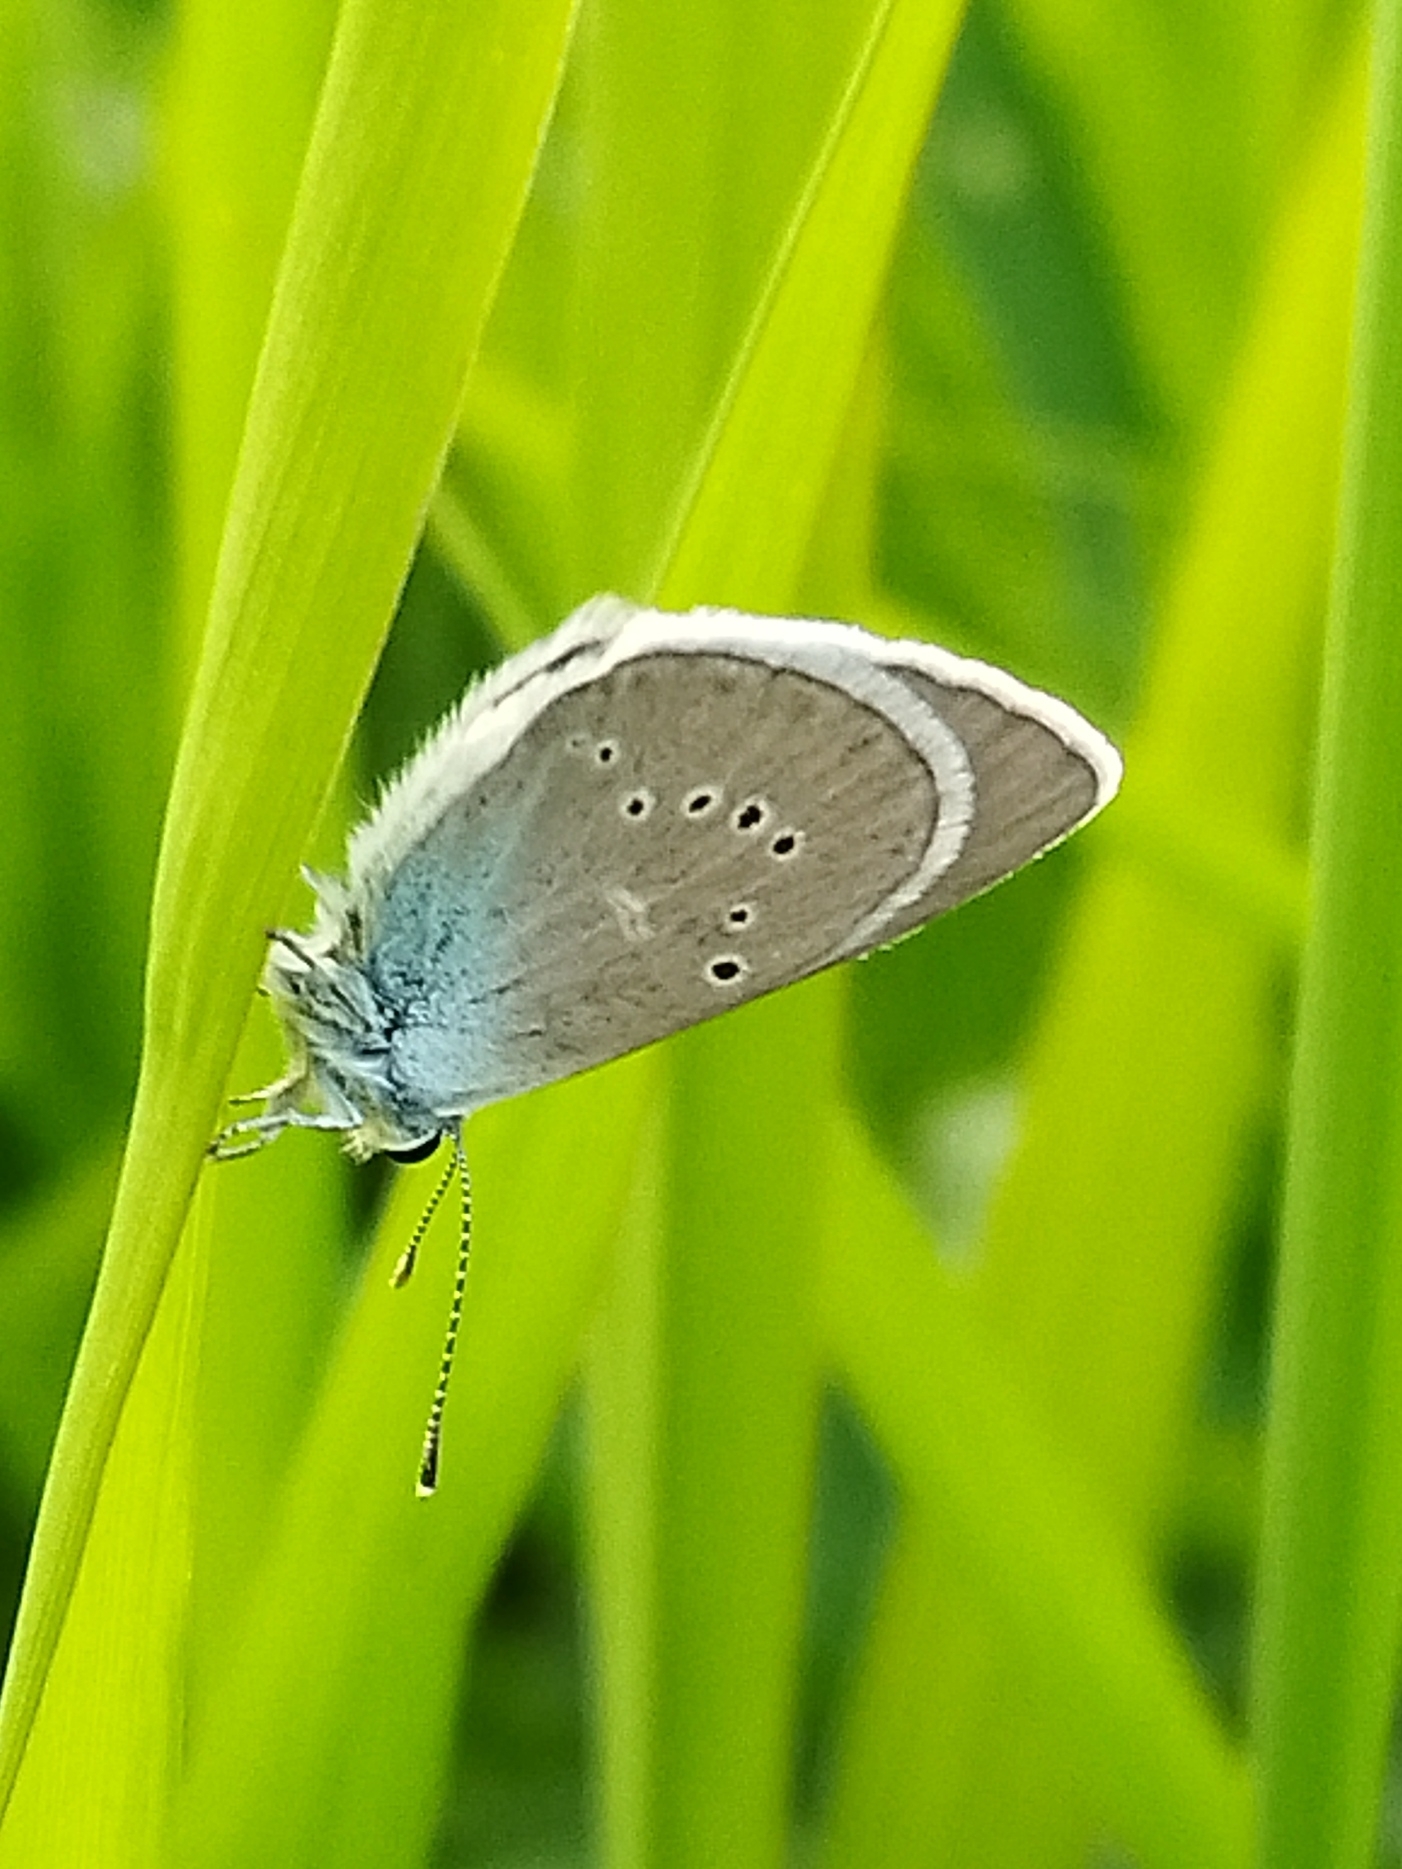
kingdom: Animalia
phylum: Arthropoda
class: Insecta
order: Lepidoptera
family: Lycaenidae
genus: Cyaniris
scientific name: Cyaniris semiargus
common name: Mazarine blue
